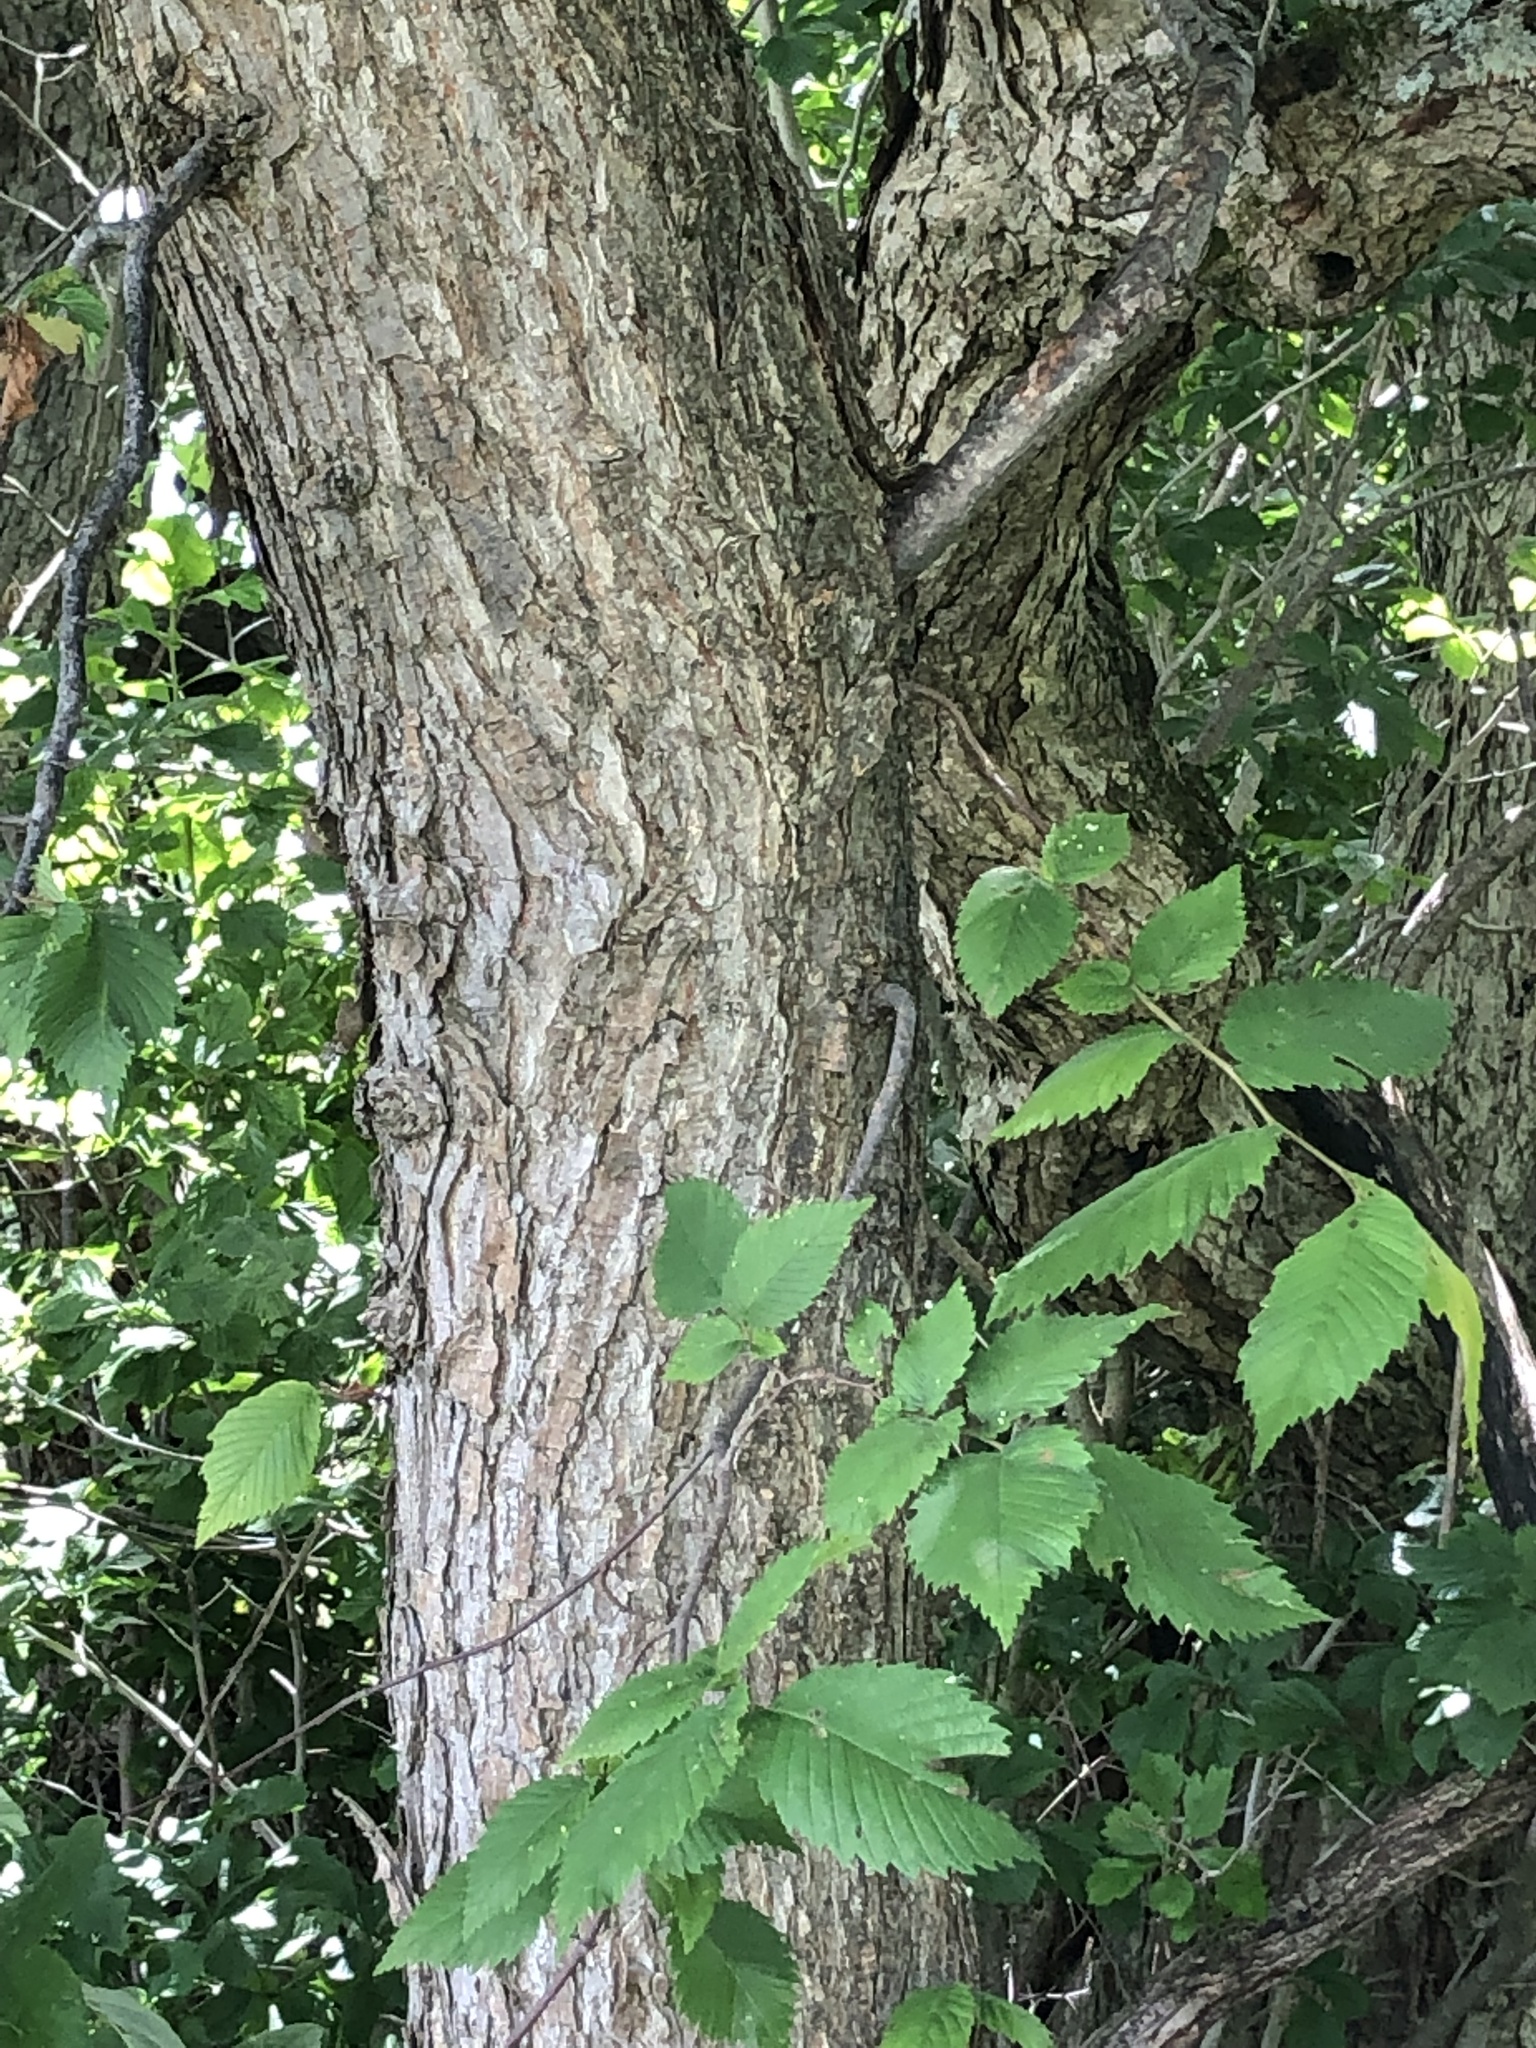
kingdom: Plantae
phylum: Tracheophyta
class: Magnoliopsida
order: Rosales
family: Rosaceae
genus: Crataegus
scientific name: Crataegus punctata
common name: Dotted hawthorn
